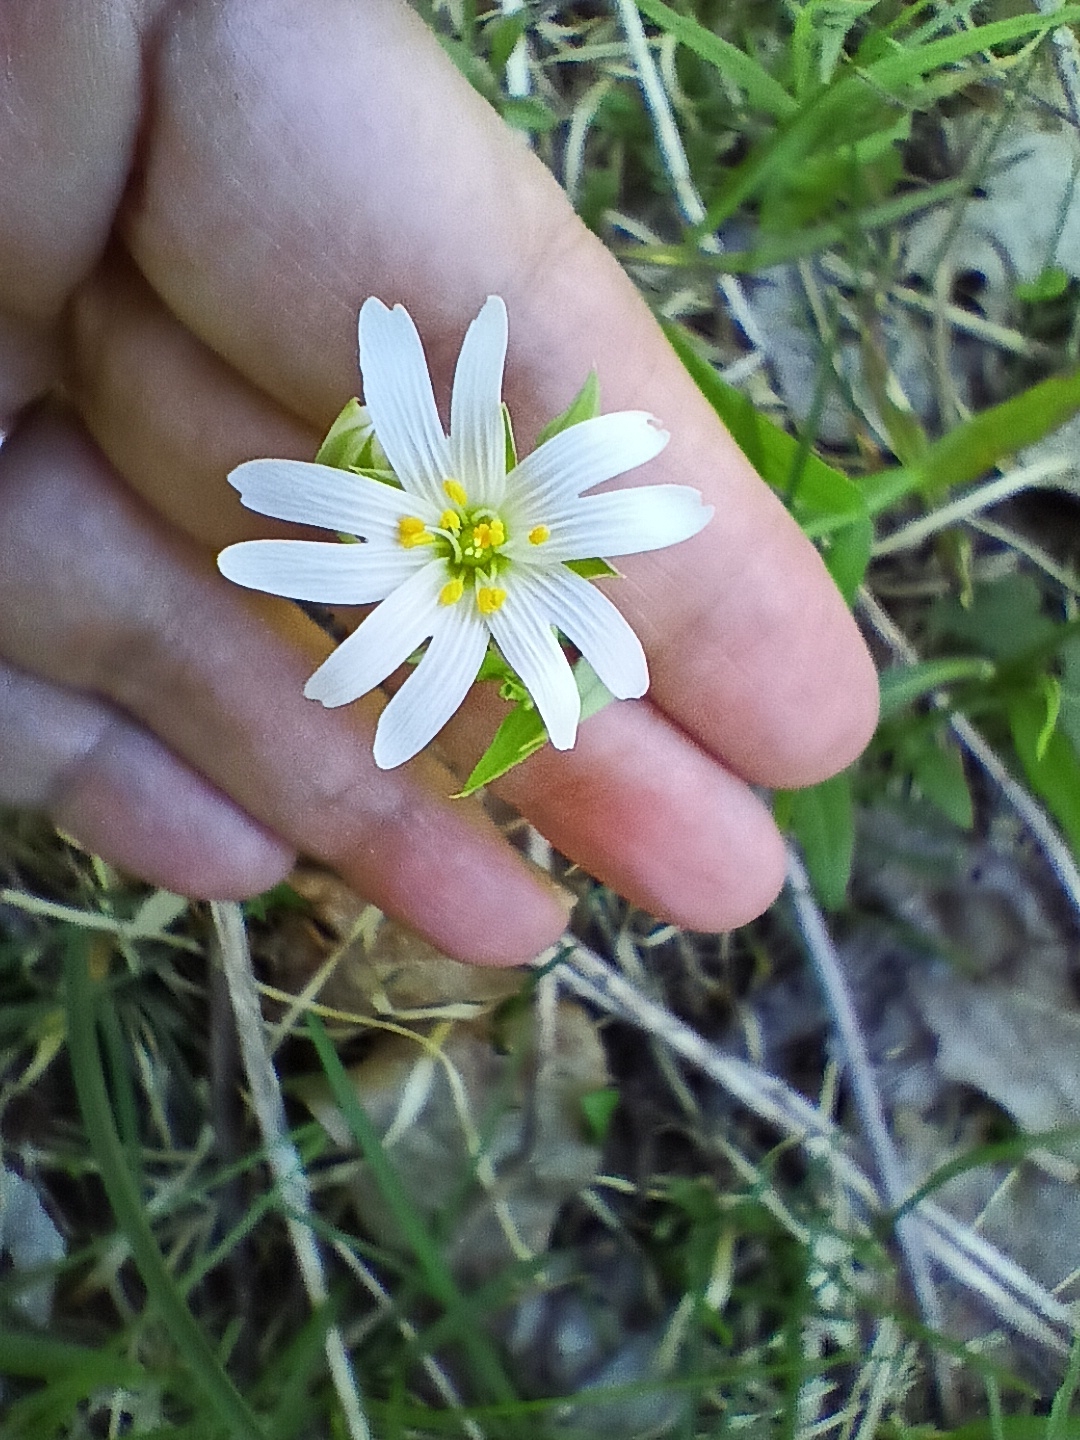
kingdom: Plantae
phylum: Tracheophyta
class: Magnoliopsida
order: Caryophyllales
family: Caryophyllaceae
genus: Rabelera
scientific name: Rabelera holostea
